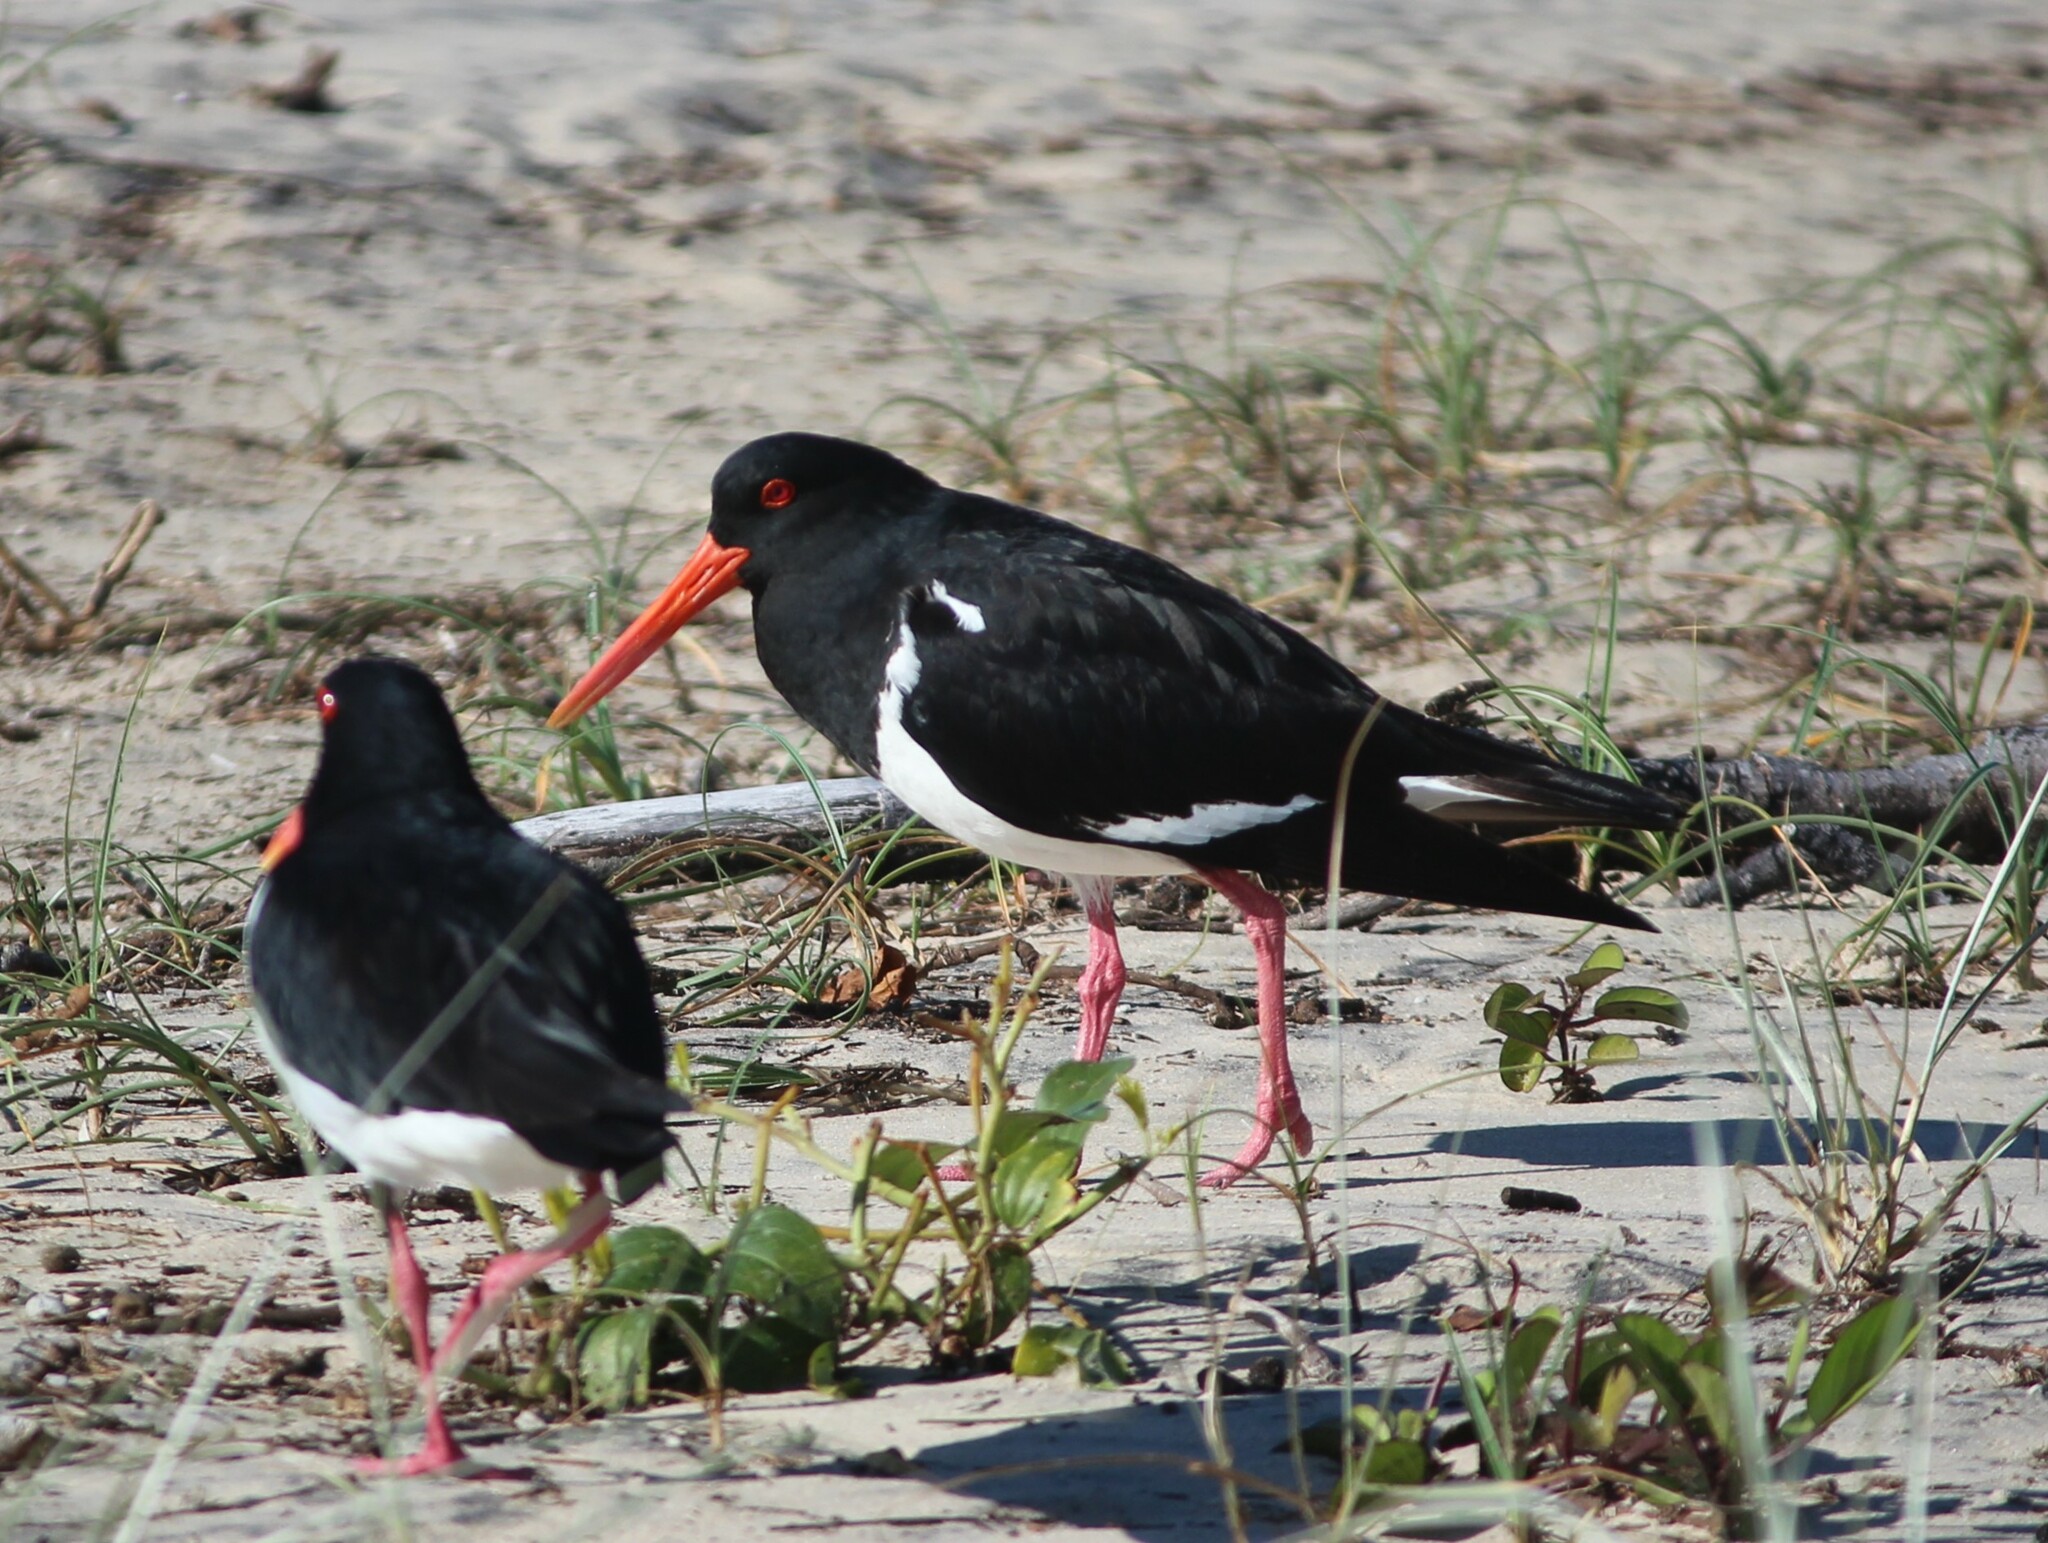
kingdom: Animalia
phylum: Chordata
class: Aves
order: Charadriiformes
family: Haematopodidae
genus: Haematopus
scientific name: Haematopus longirostris
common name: Pied oystercatcher
